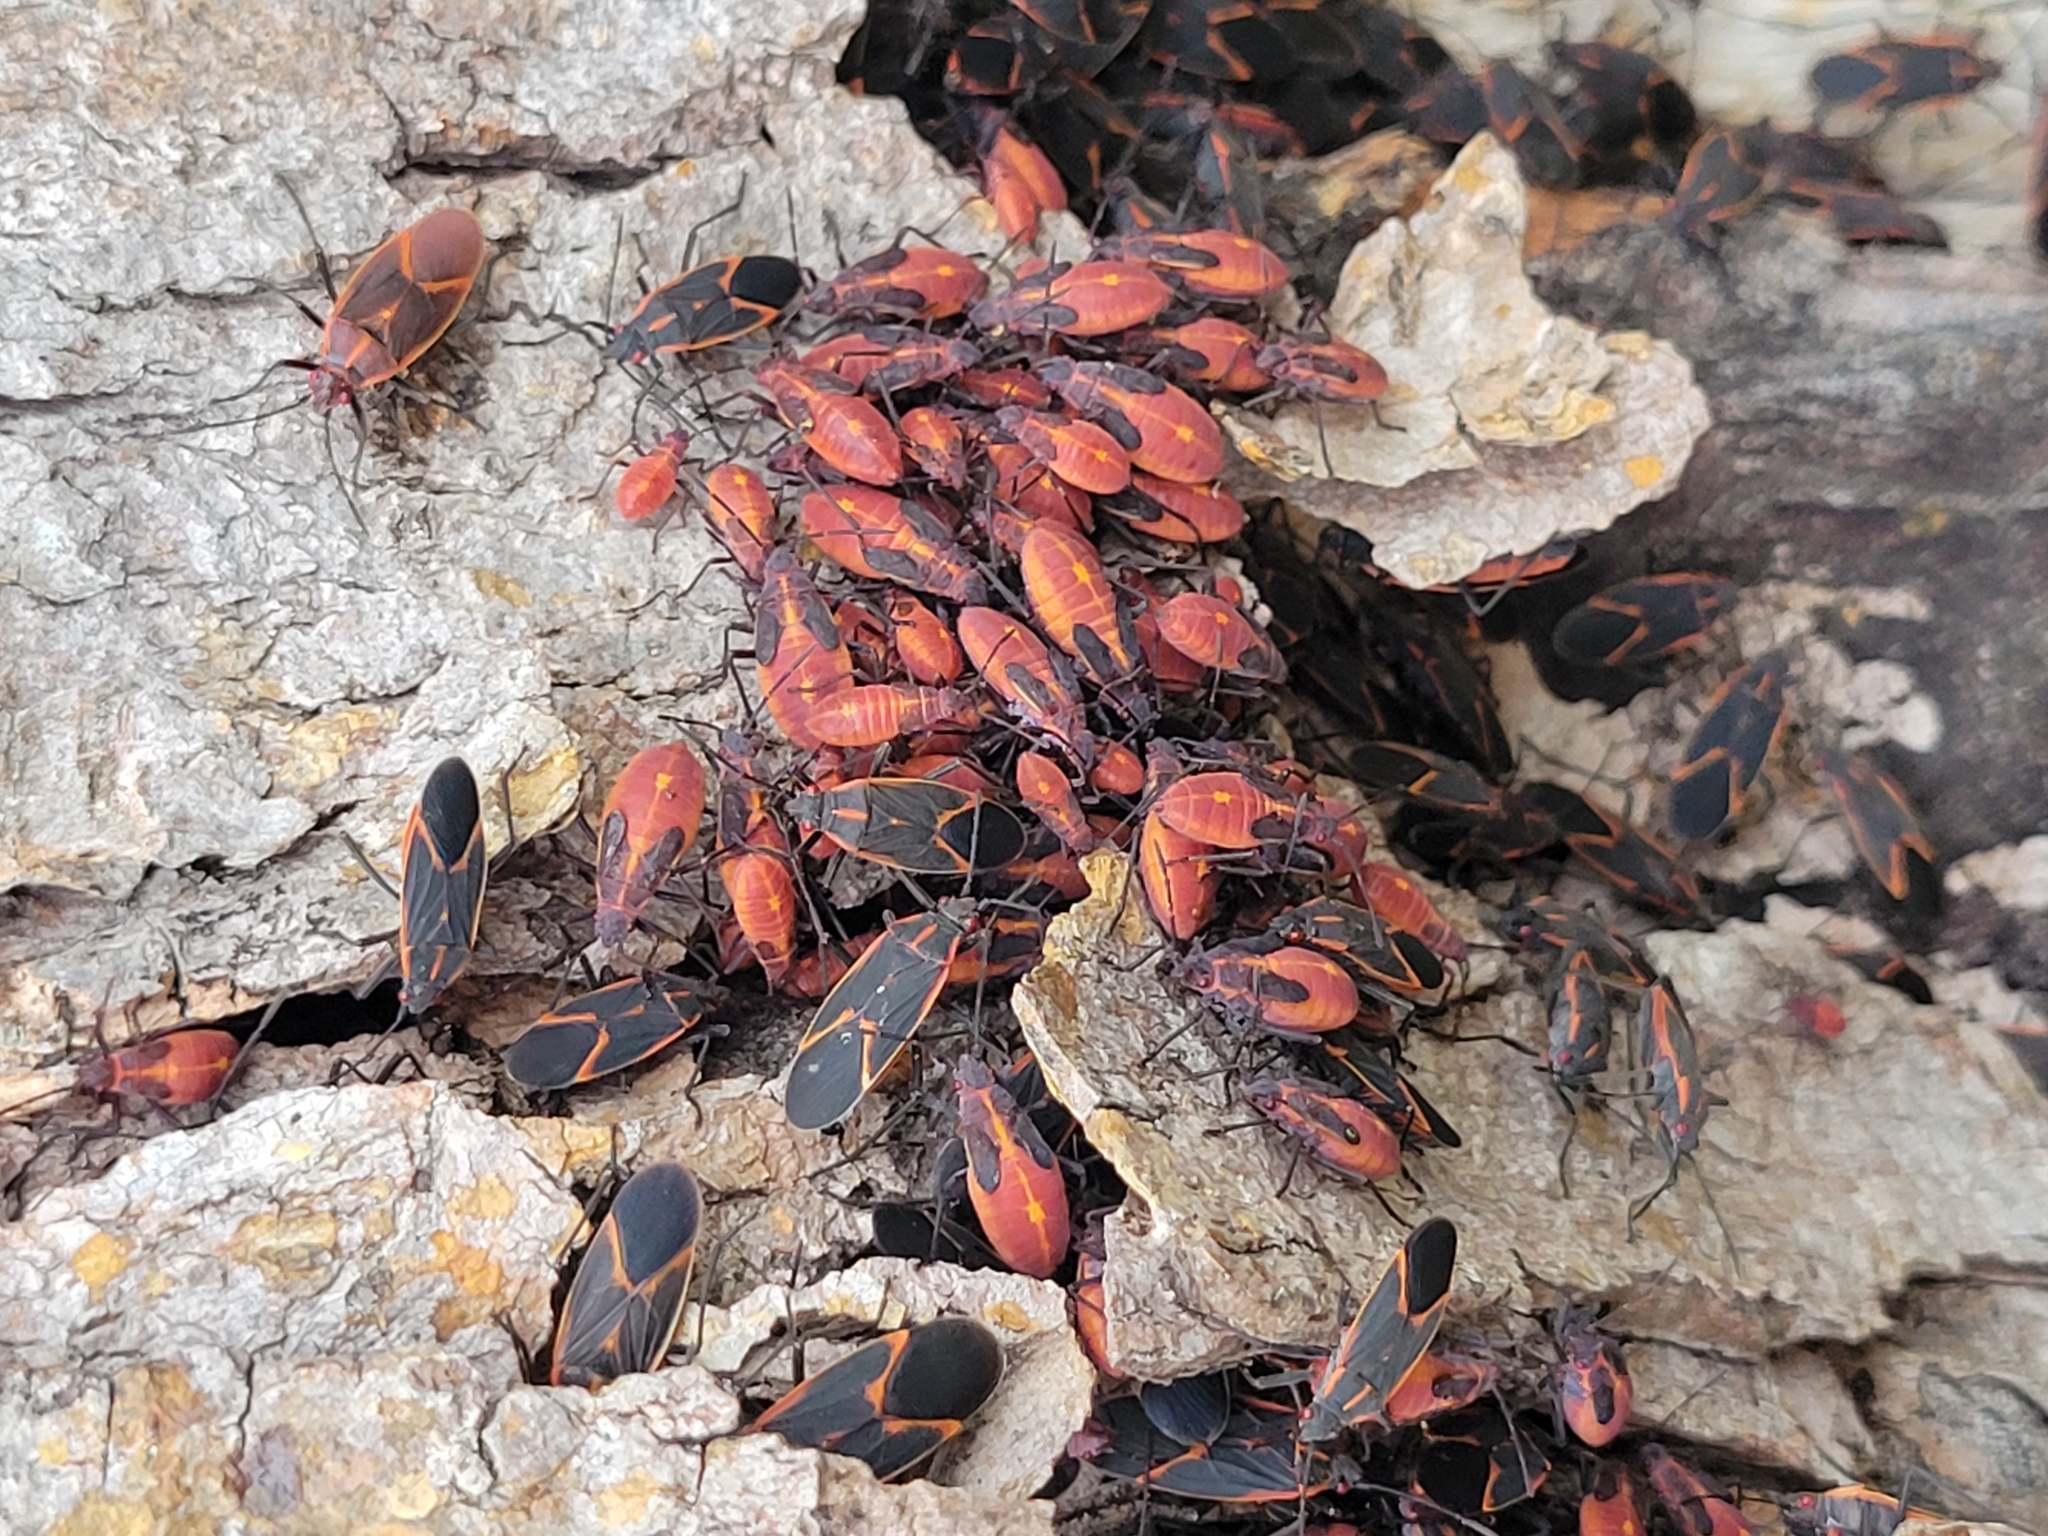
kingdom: Animalia
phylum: Arthropoda
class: Insecta
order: Hemiptera
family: Rhopalidae
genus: Boisea
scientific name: Boisea trivittata
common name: Boxelder bug
